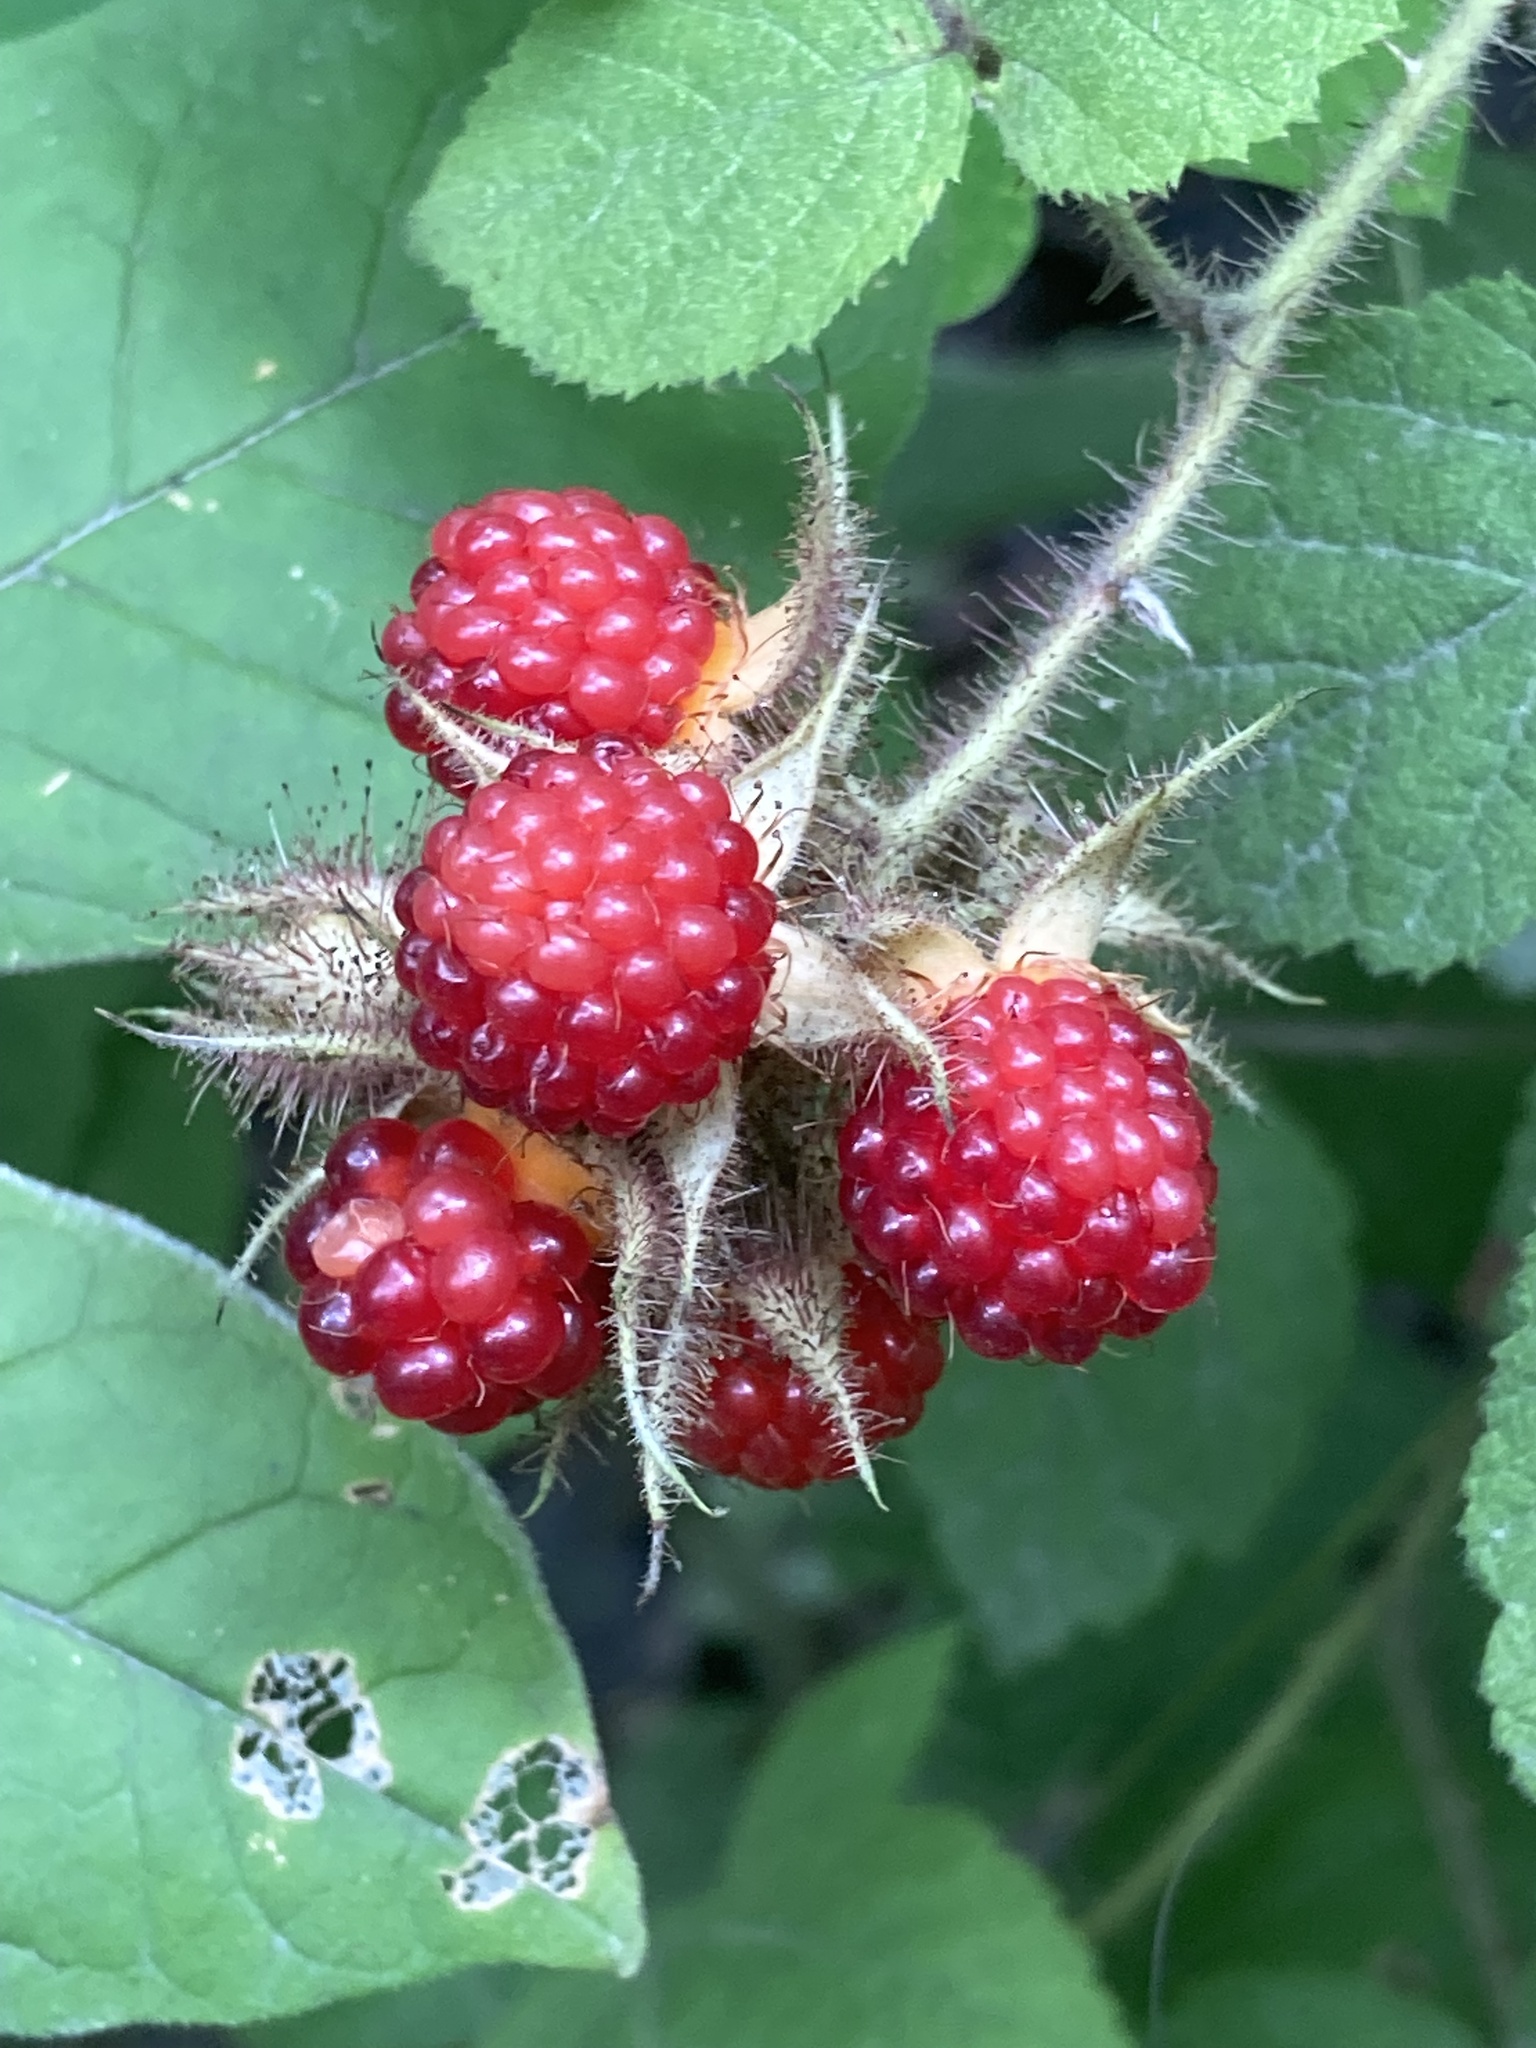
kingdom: Plantae
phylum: Tracheophyta
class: Magnoliopsida
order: Rosales
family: Rosaceae
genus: Rubus
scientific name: Rubus phoenicolasius
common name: Japanese wineberry
